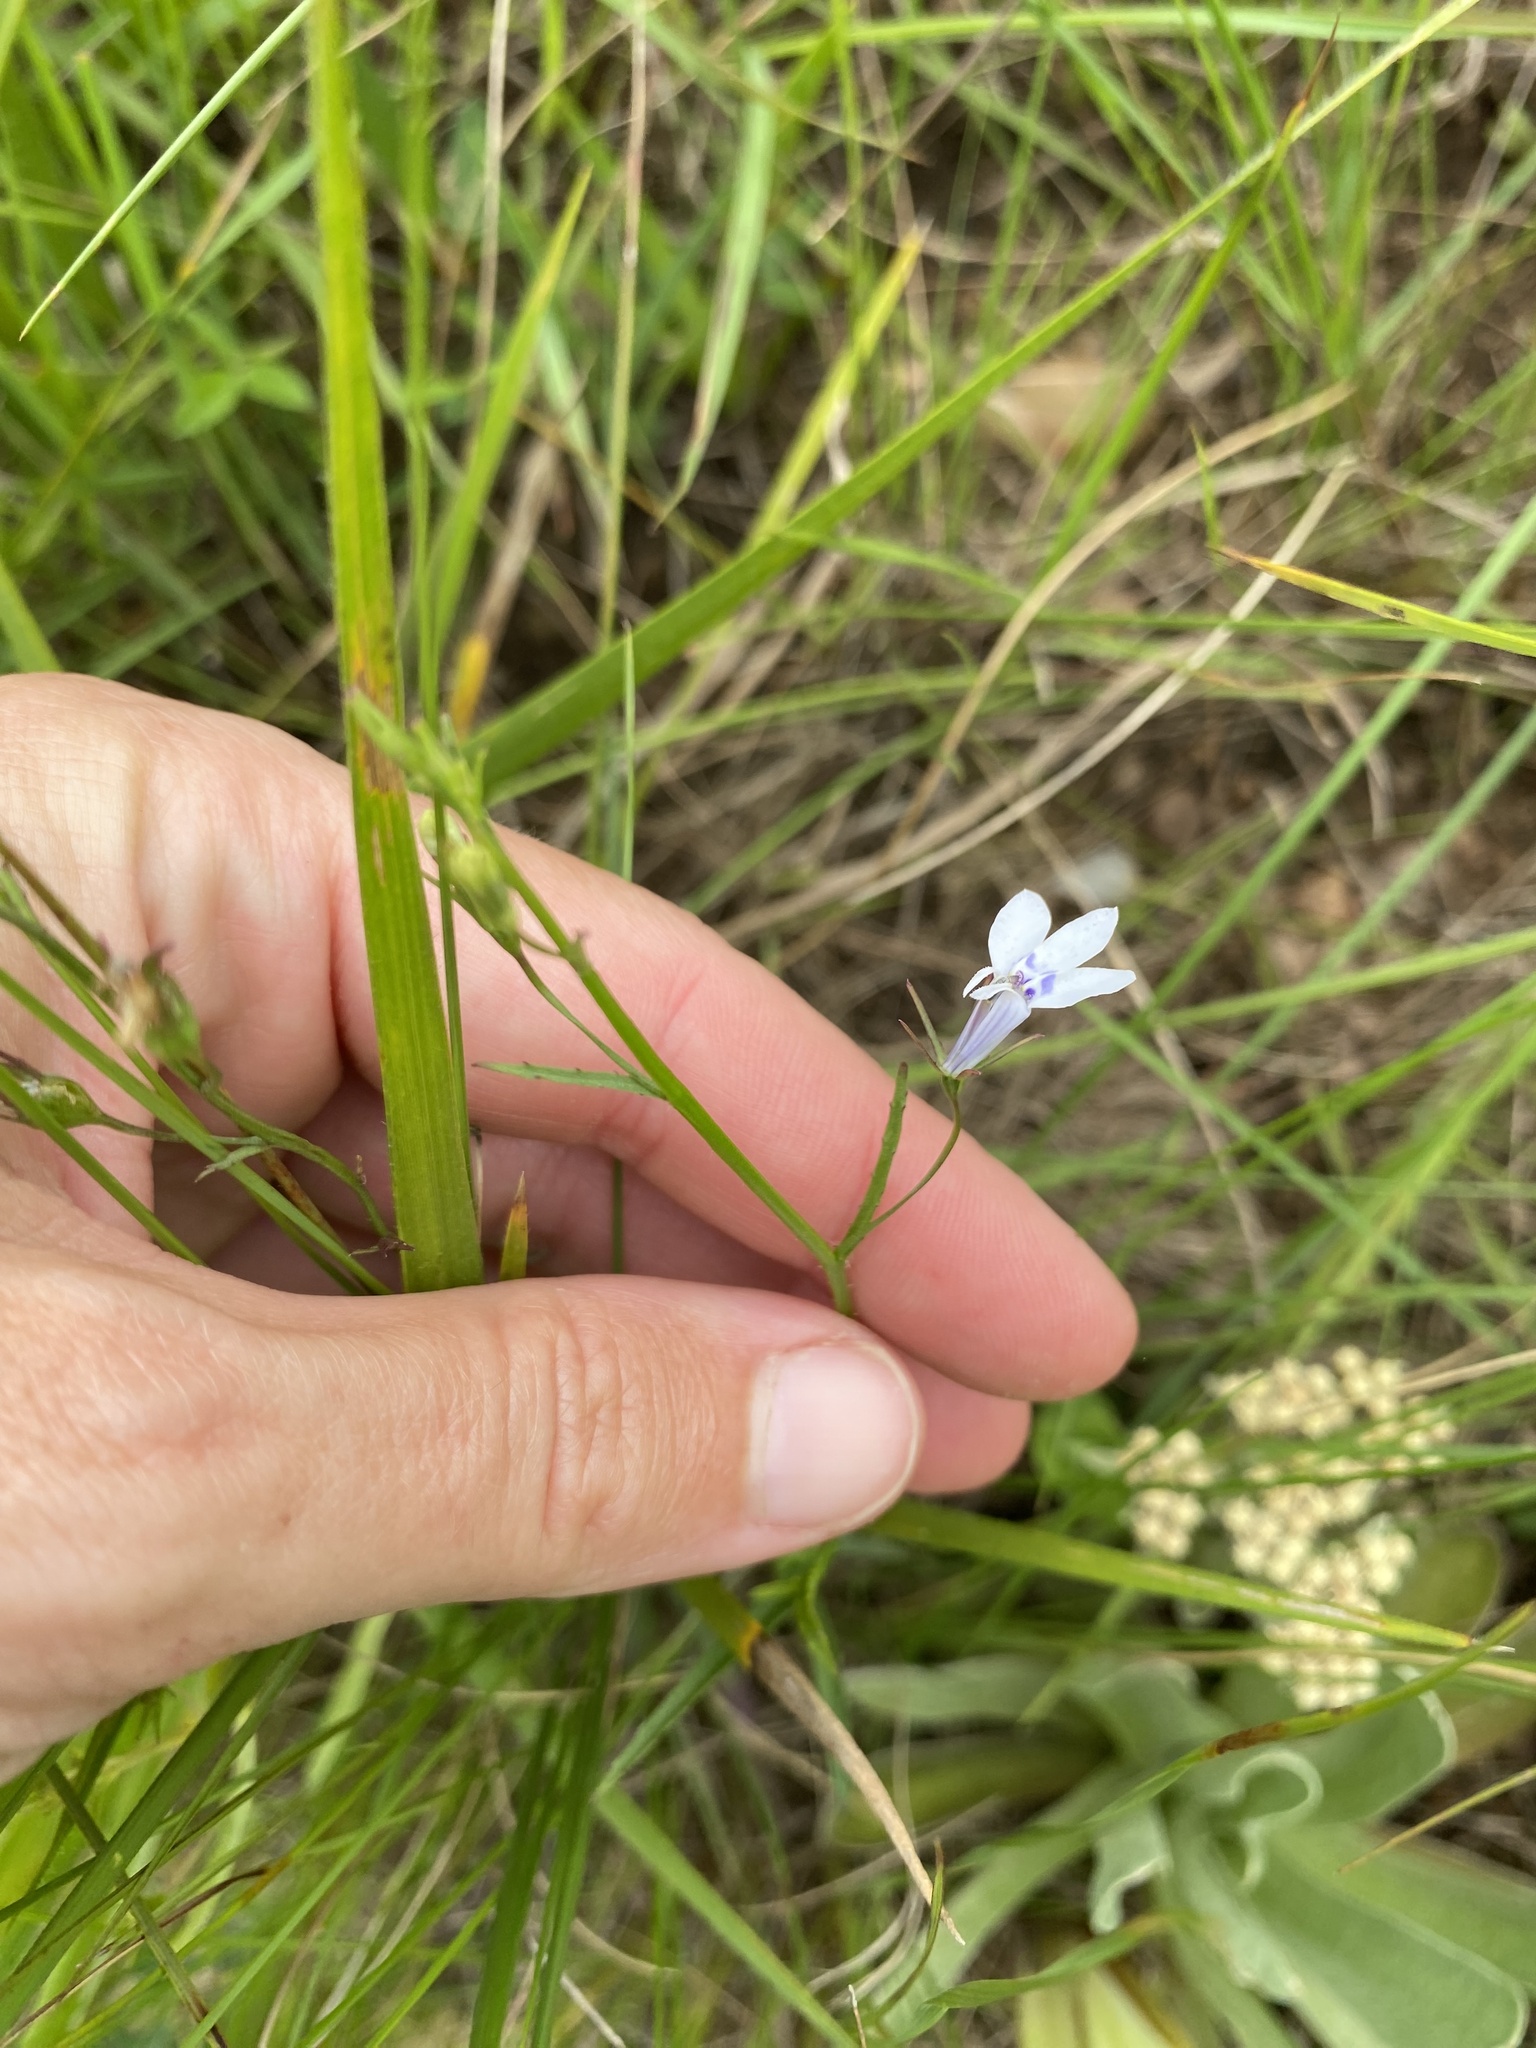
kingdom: Plantae
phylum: Tracheophyta
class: Magnoliopsida
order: Asterales
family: Campanulaceae
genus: Lobelia
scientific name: Lobelia flaccida
